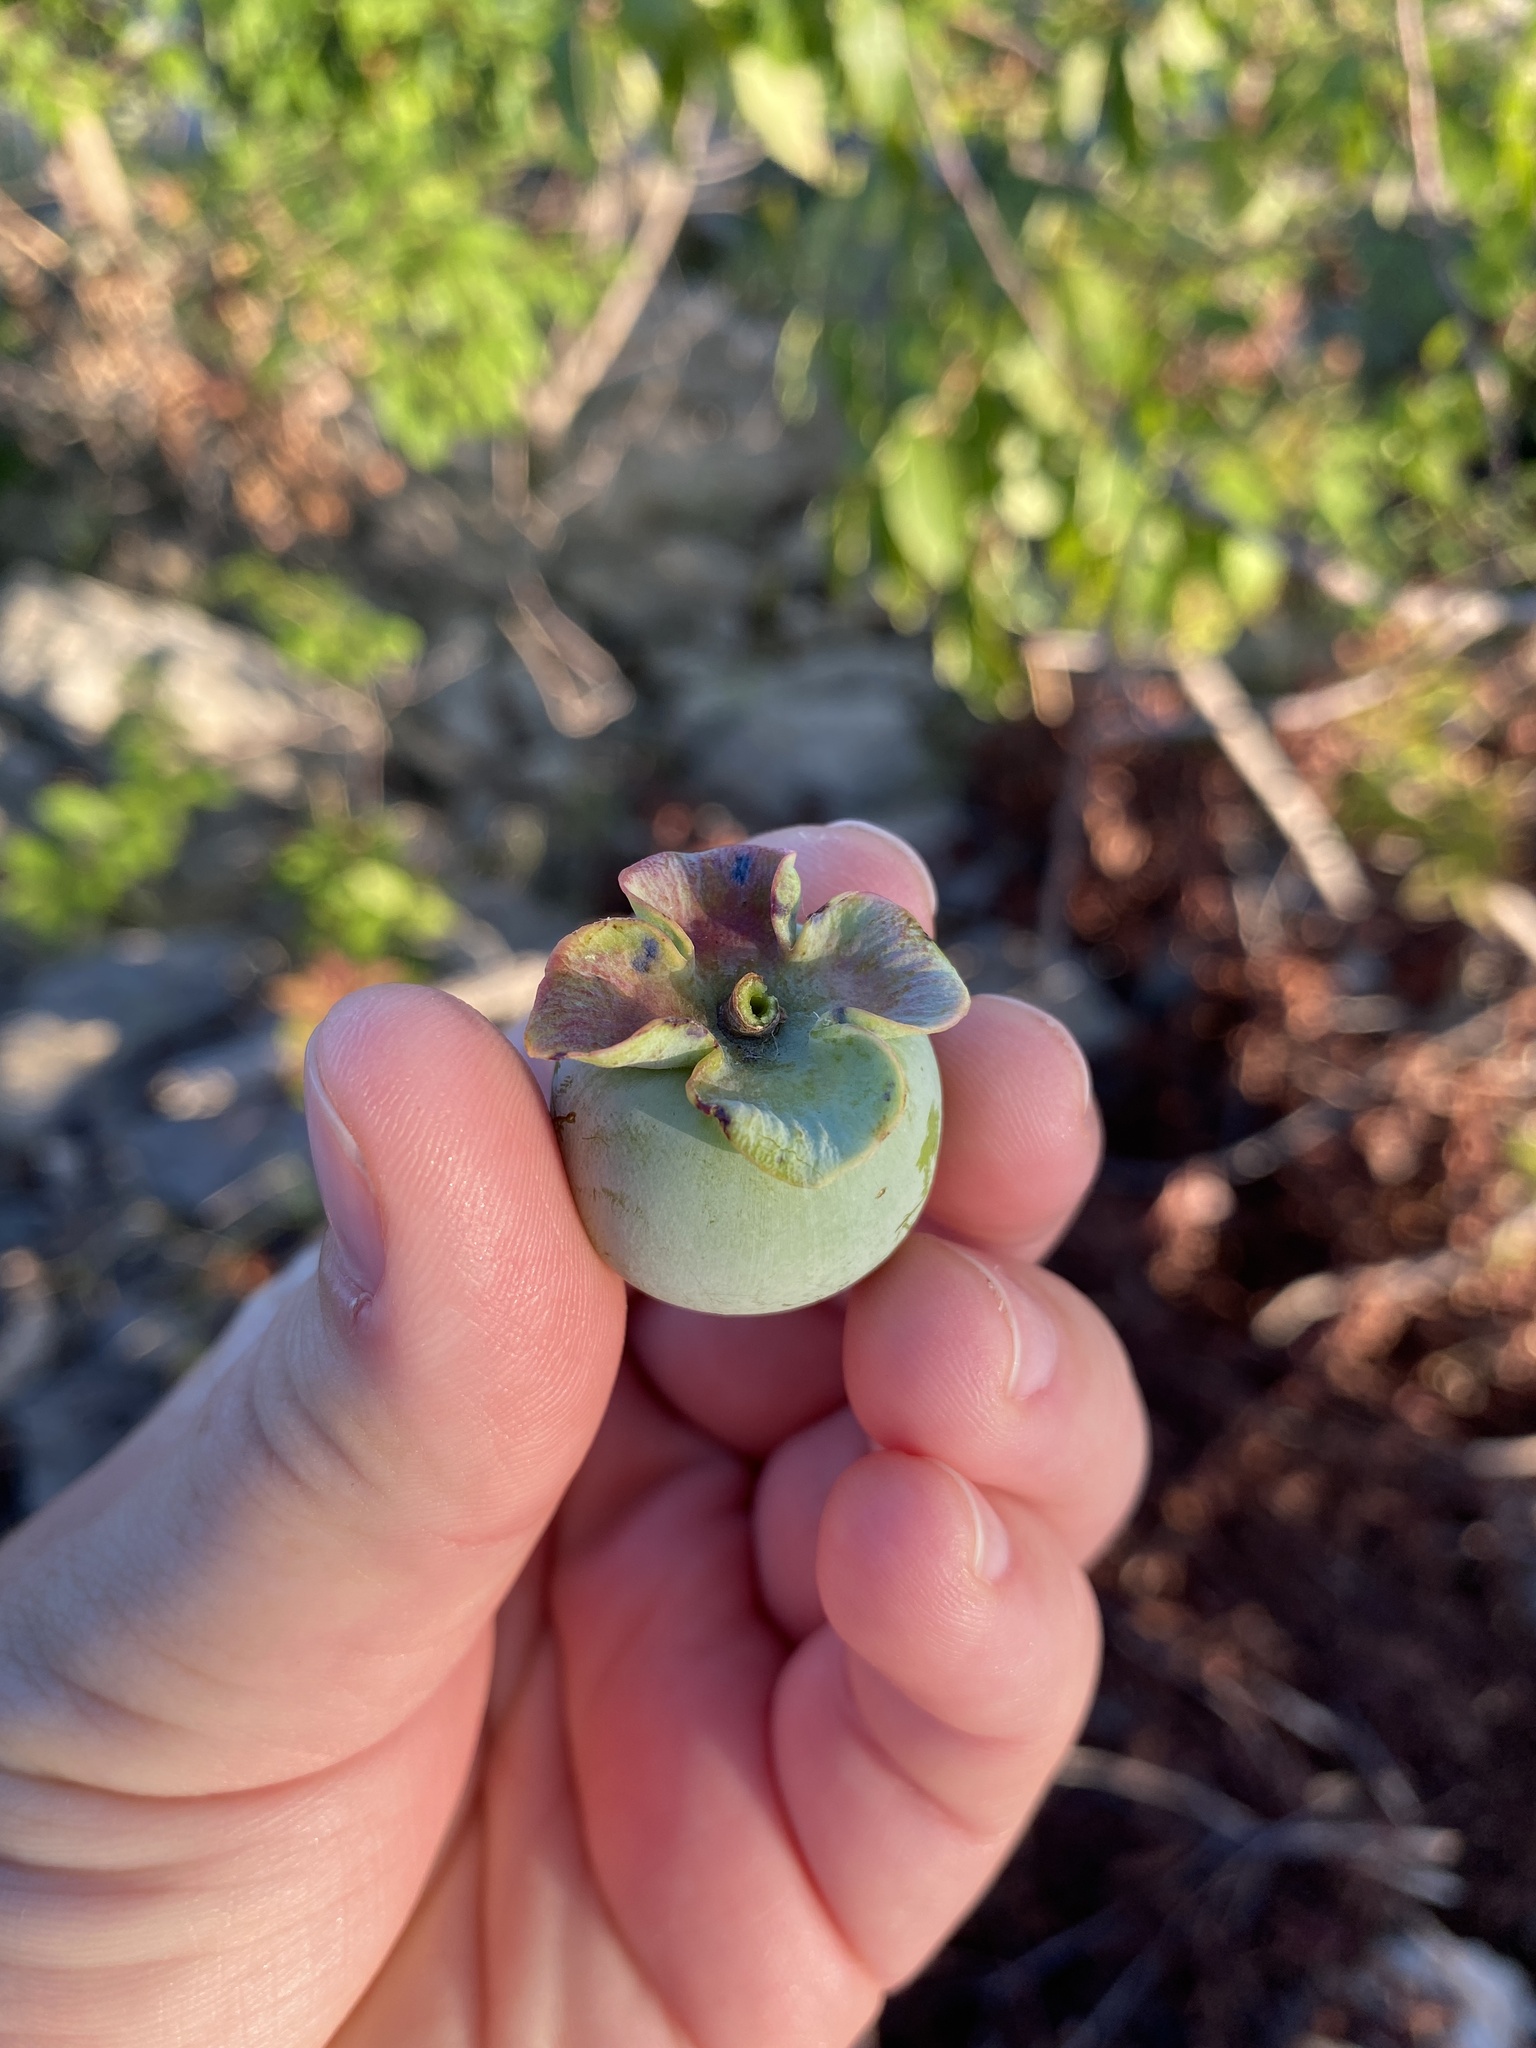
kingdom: Plantae
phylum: Tracheophyta
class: Magnoliopsida
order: Ericales
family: Ebenaceae
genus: Diospyros
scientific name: Diospyros virginiana
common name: Persimmon
